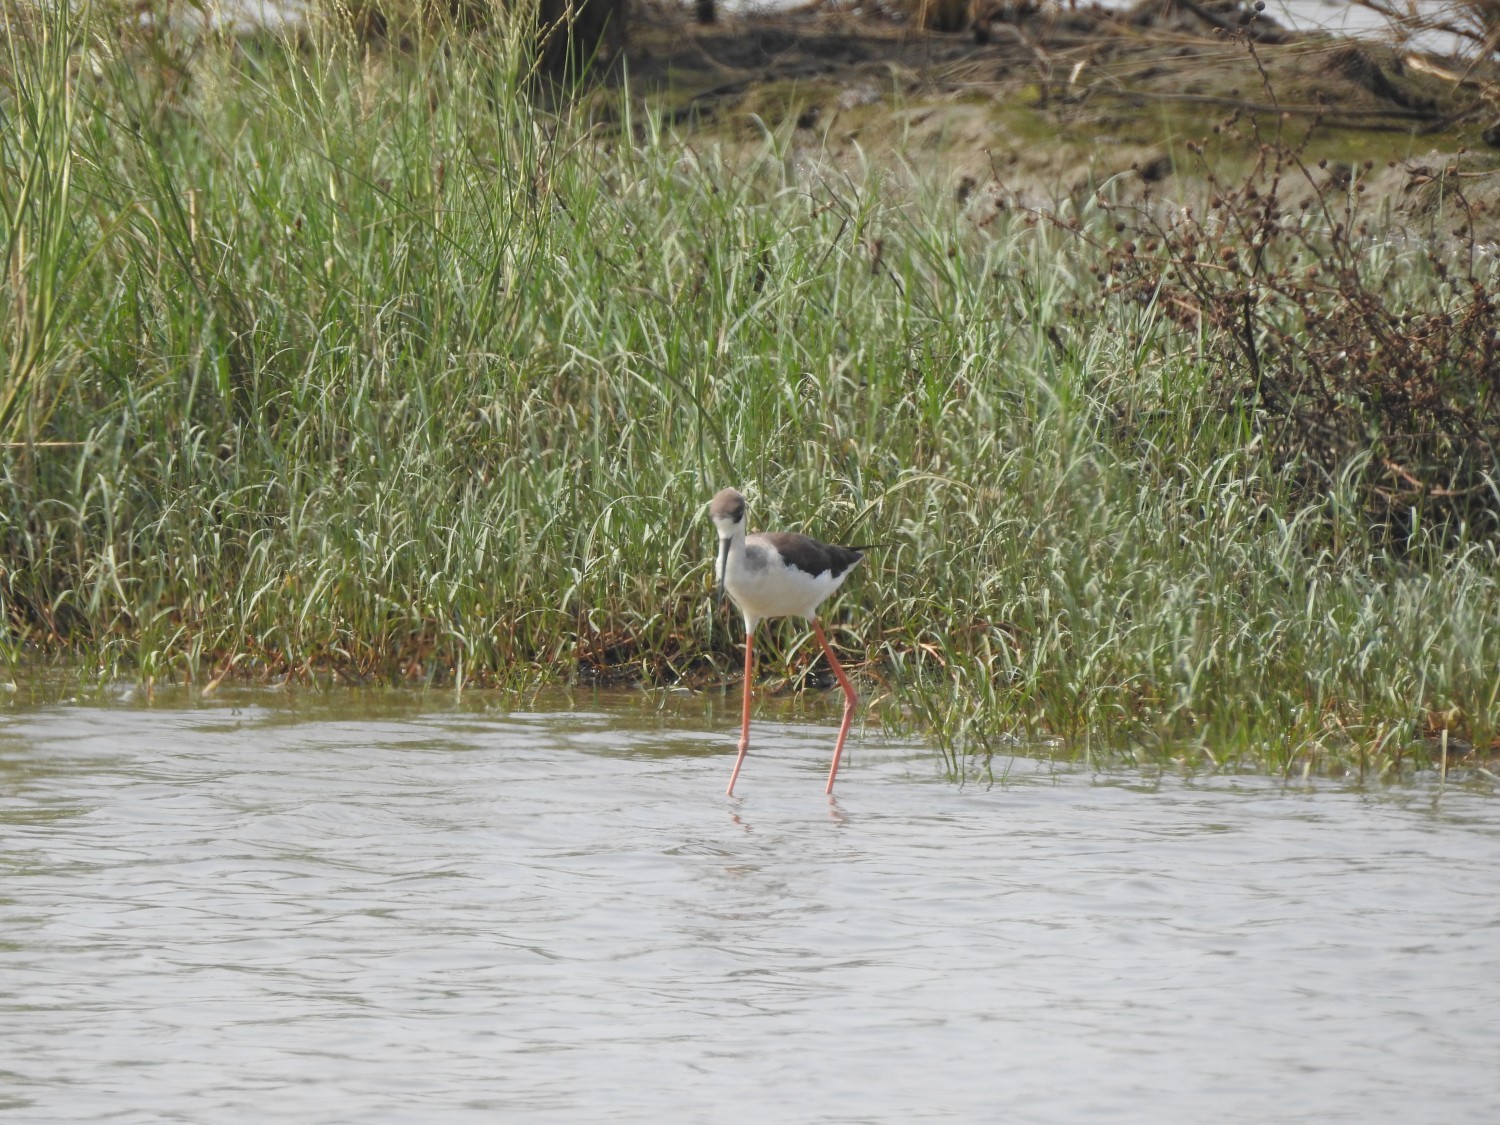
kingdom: Animalia
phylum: Chordata
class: Aves
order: Charadriiformes
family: Recurvirostridae
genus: Himantopus
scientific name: Himantopus himantopus
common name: Black-winged stilt
